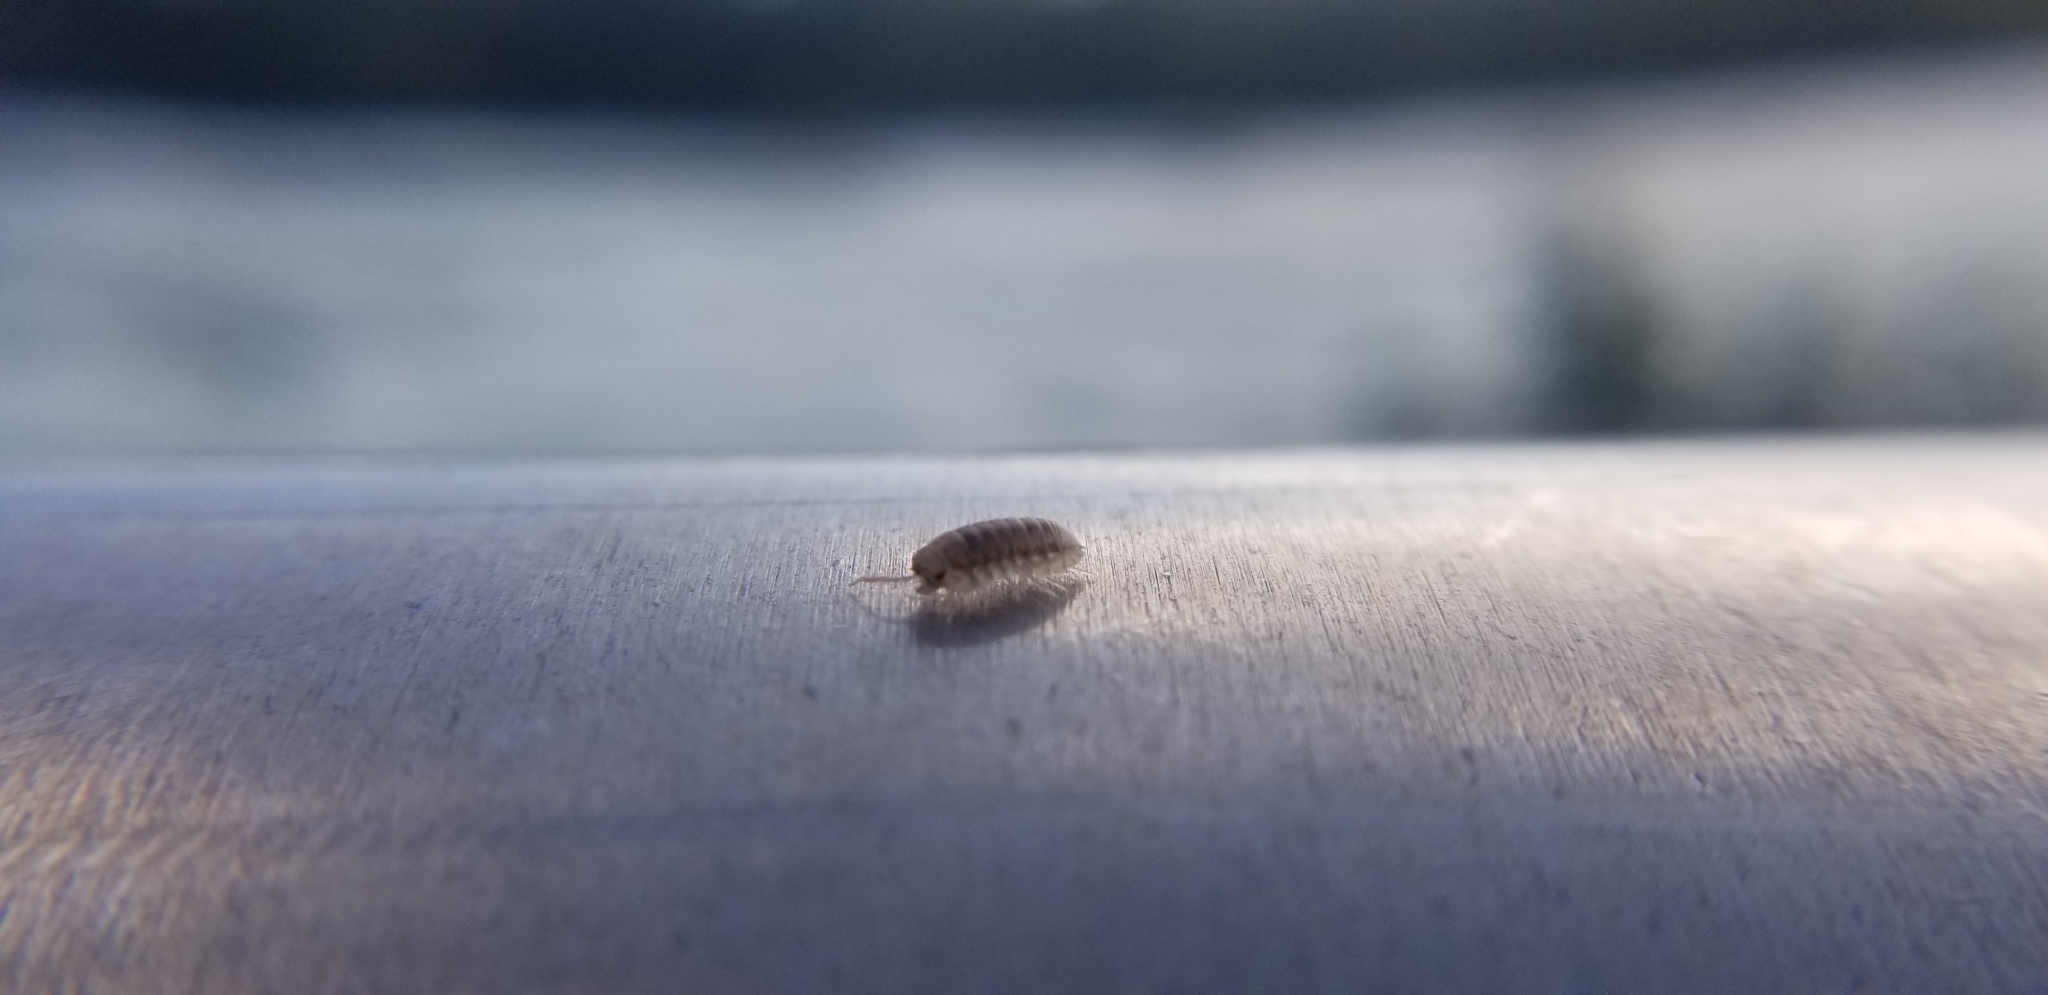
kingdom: Animalia
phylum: Arthropoda
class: Malacostraca
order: Isopoda
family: Armadillidiidae
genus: Armadillidium
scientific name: Armadillidium nasatum
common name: Isopod
